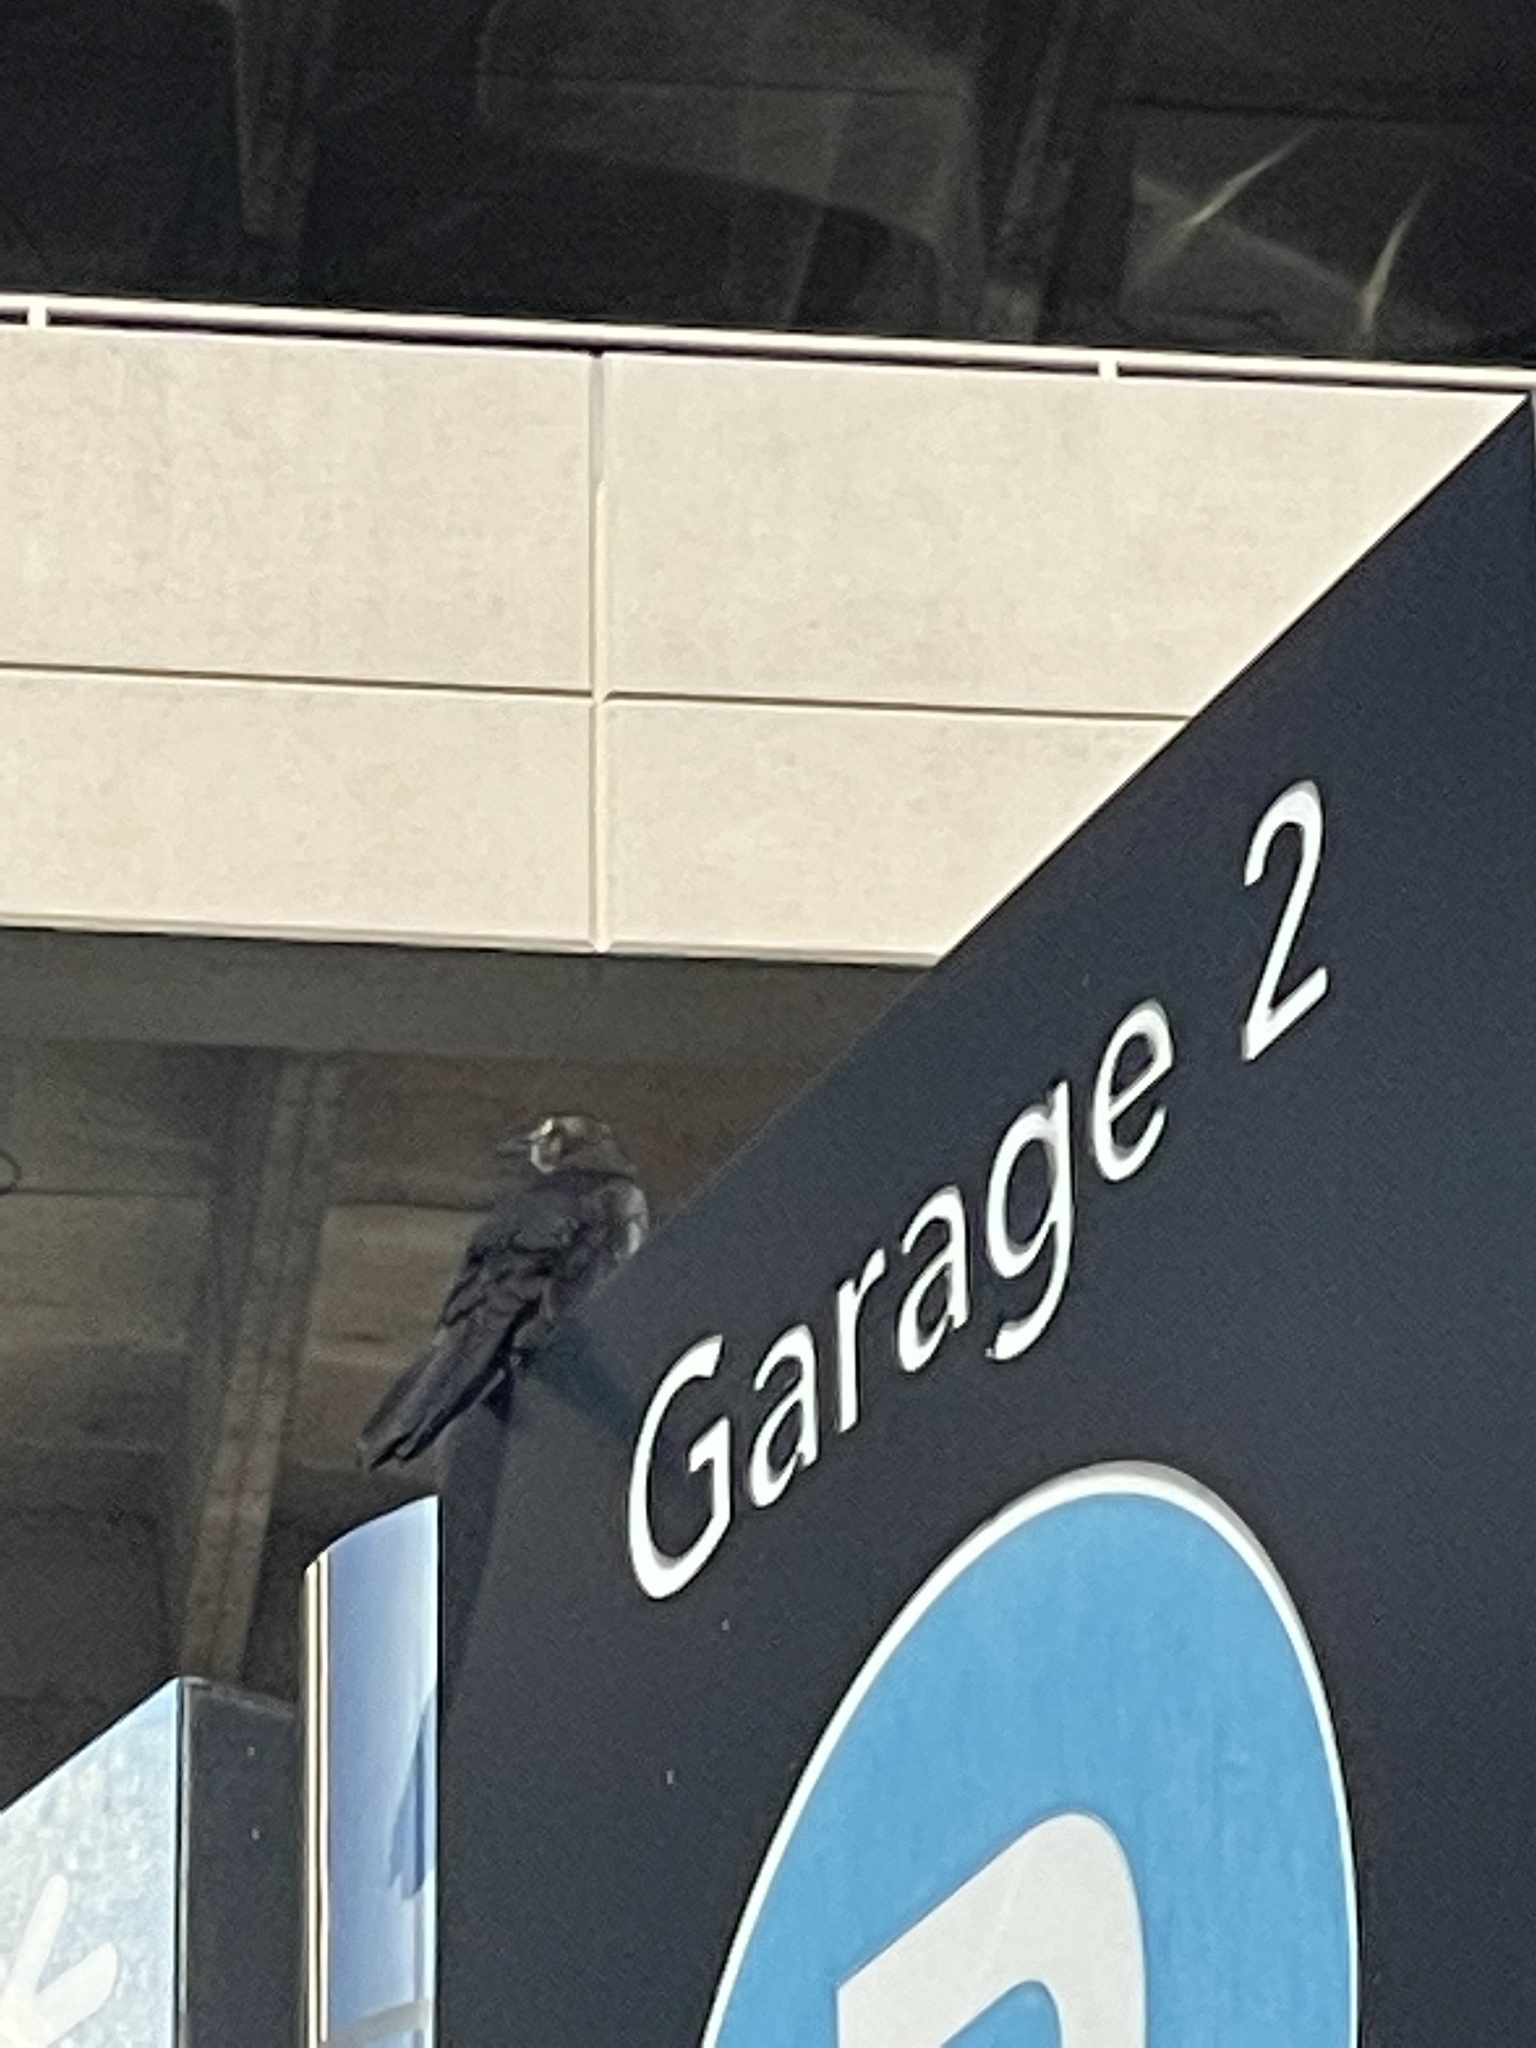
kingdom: Animalia
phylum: Chordata
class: Aves
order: Passeriformes
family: Icteridae
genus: Quiscalus
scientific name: Quiscalus mexicanus
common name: Great-tailed grackle
